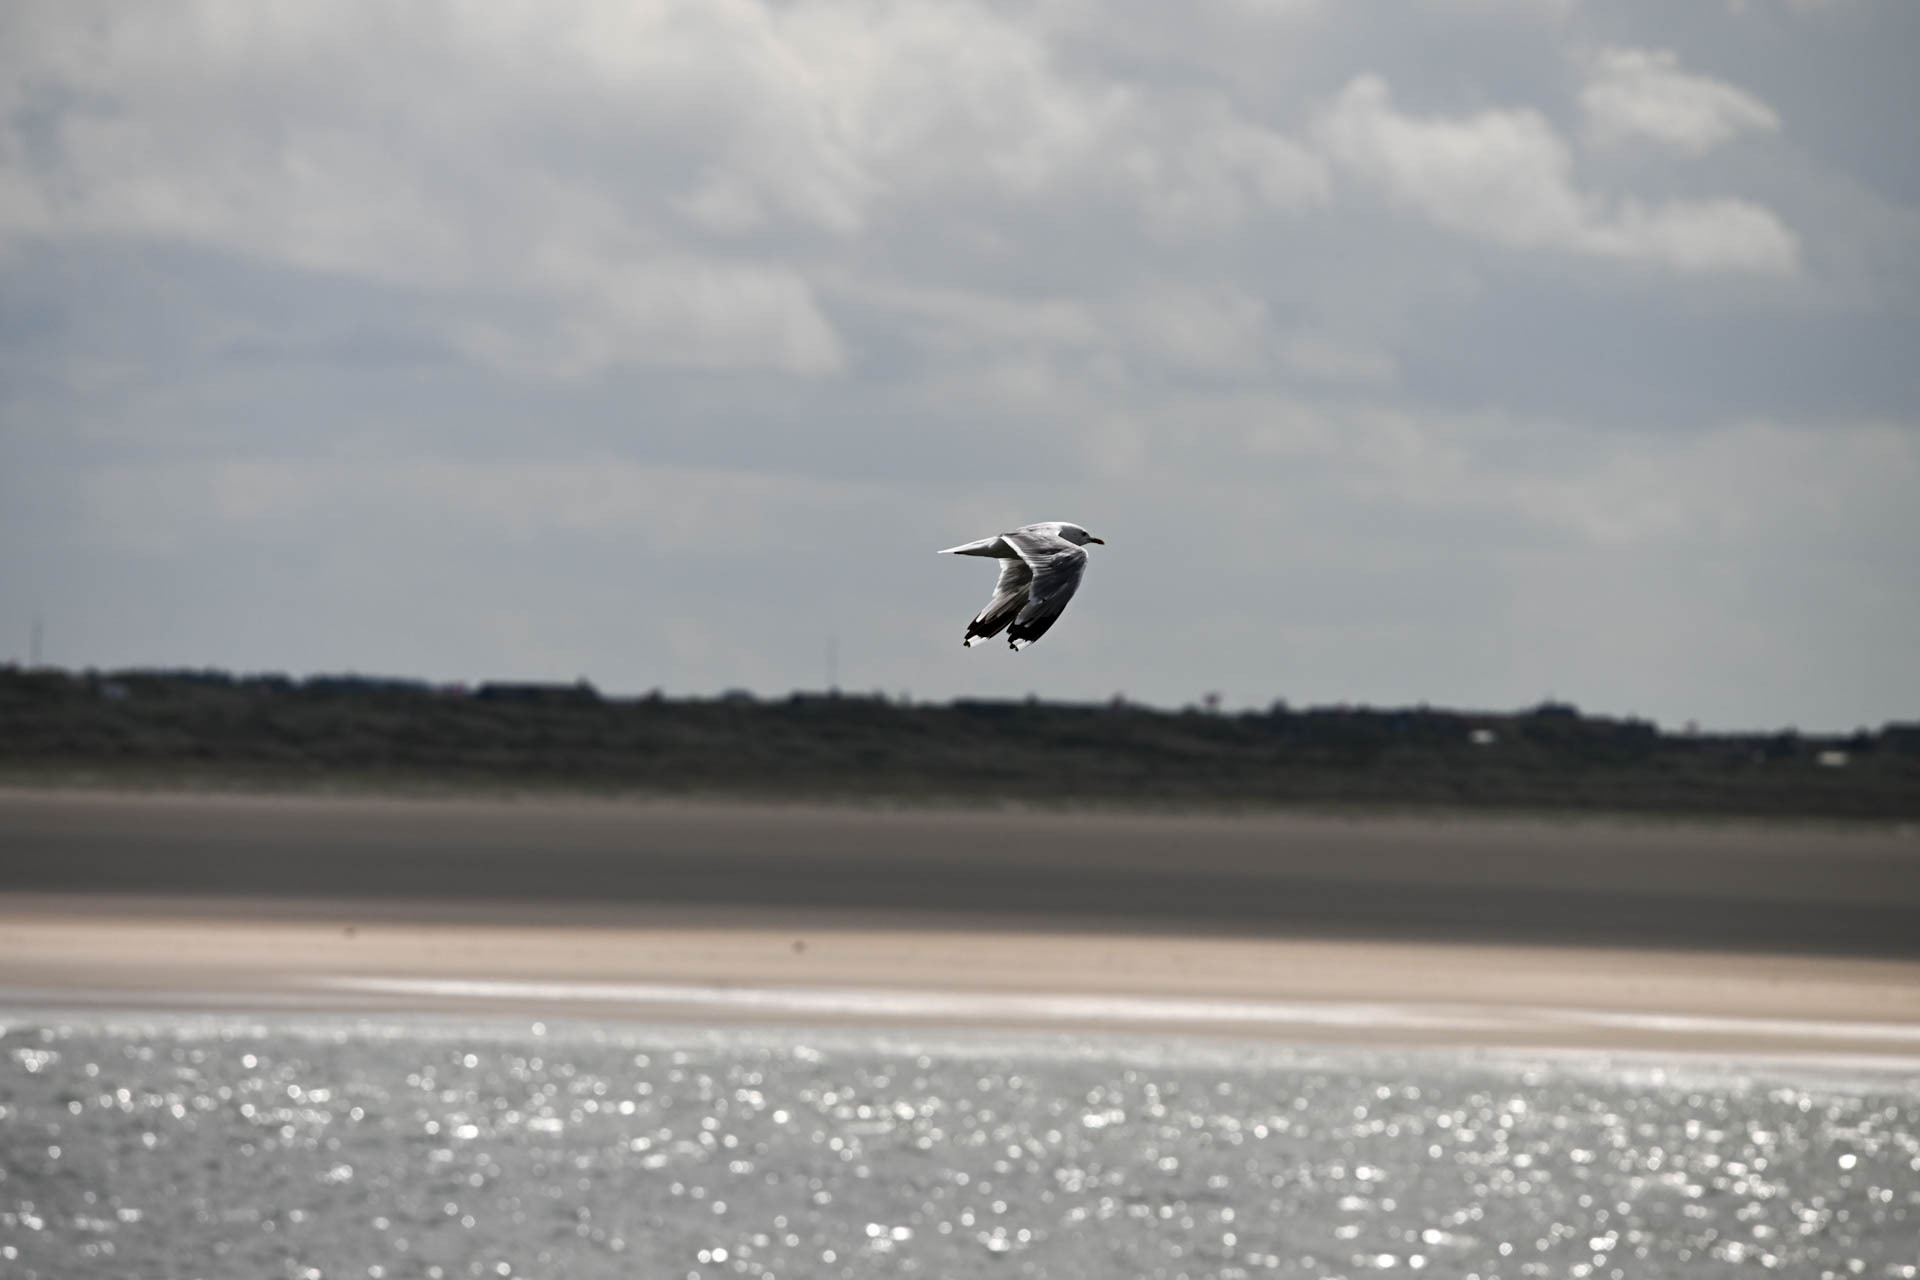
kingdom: Animalia
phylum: Chordata
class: Aves
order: Charadriiformes
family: Laridae
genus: Larus
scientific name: Larus canus
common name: Mew gull
